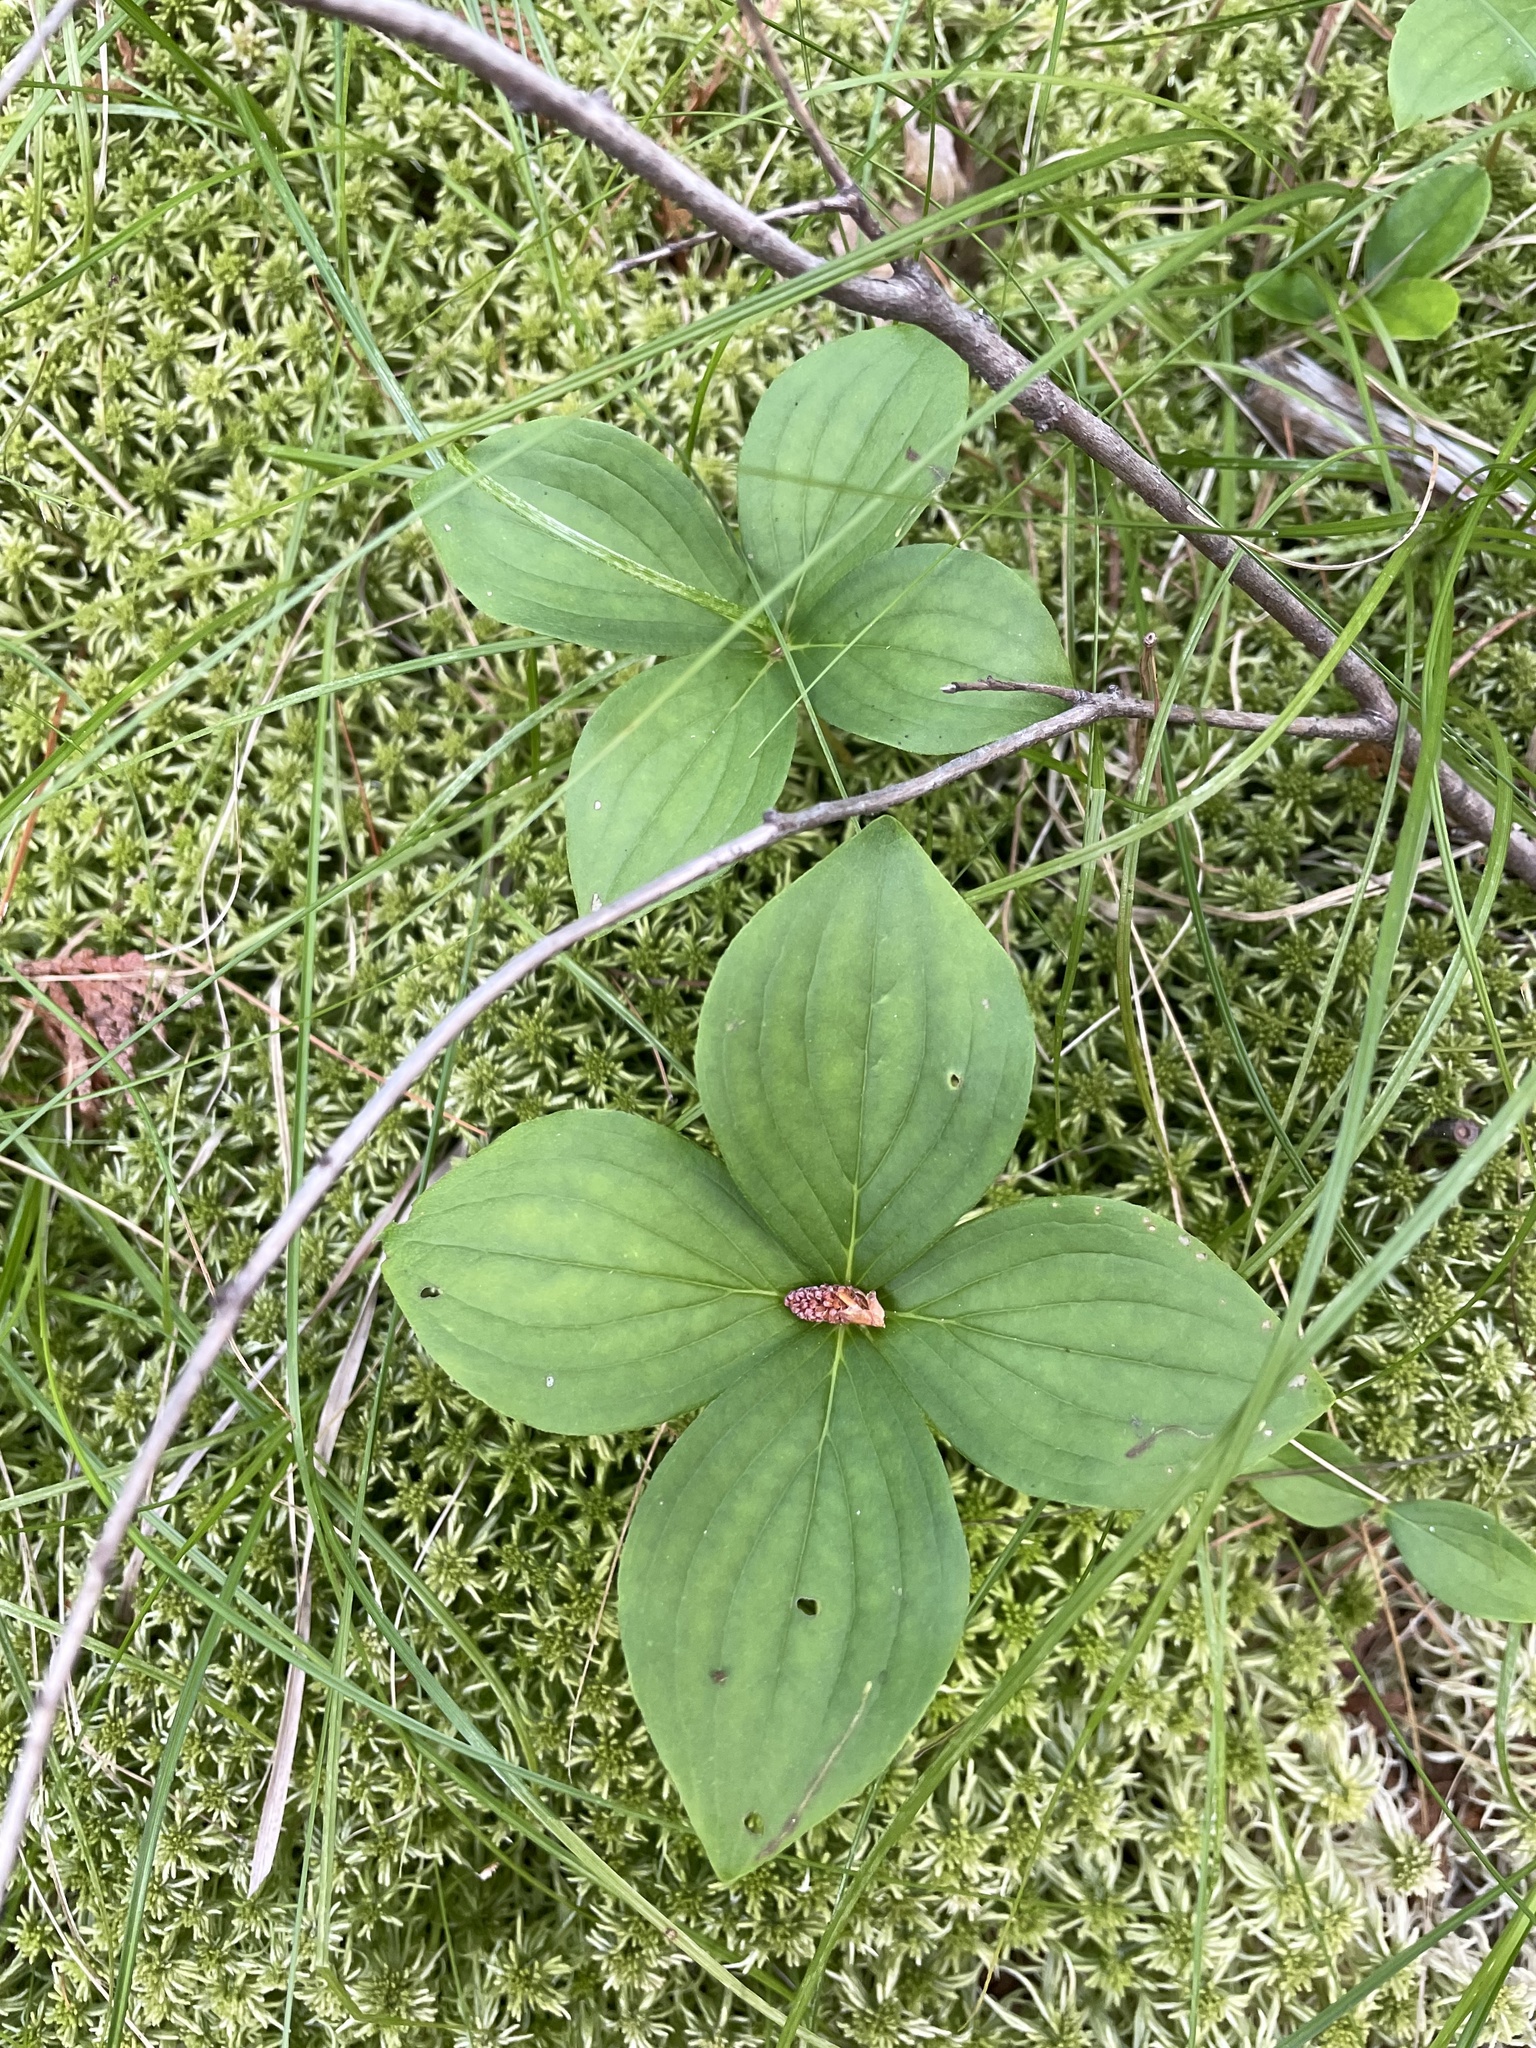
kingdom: Plantae
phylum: Tracheophyta
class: Magnoliopsida
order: Cornales
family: Cornaceae
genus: Cornus
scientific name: Cornus canadensis
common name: Creeping dogwood
